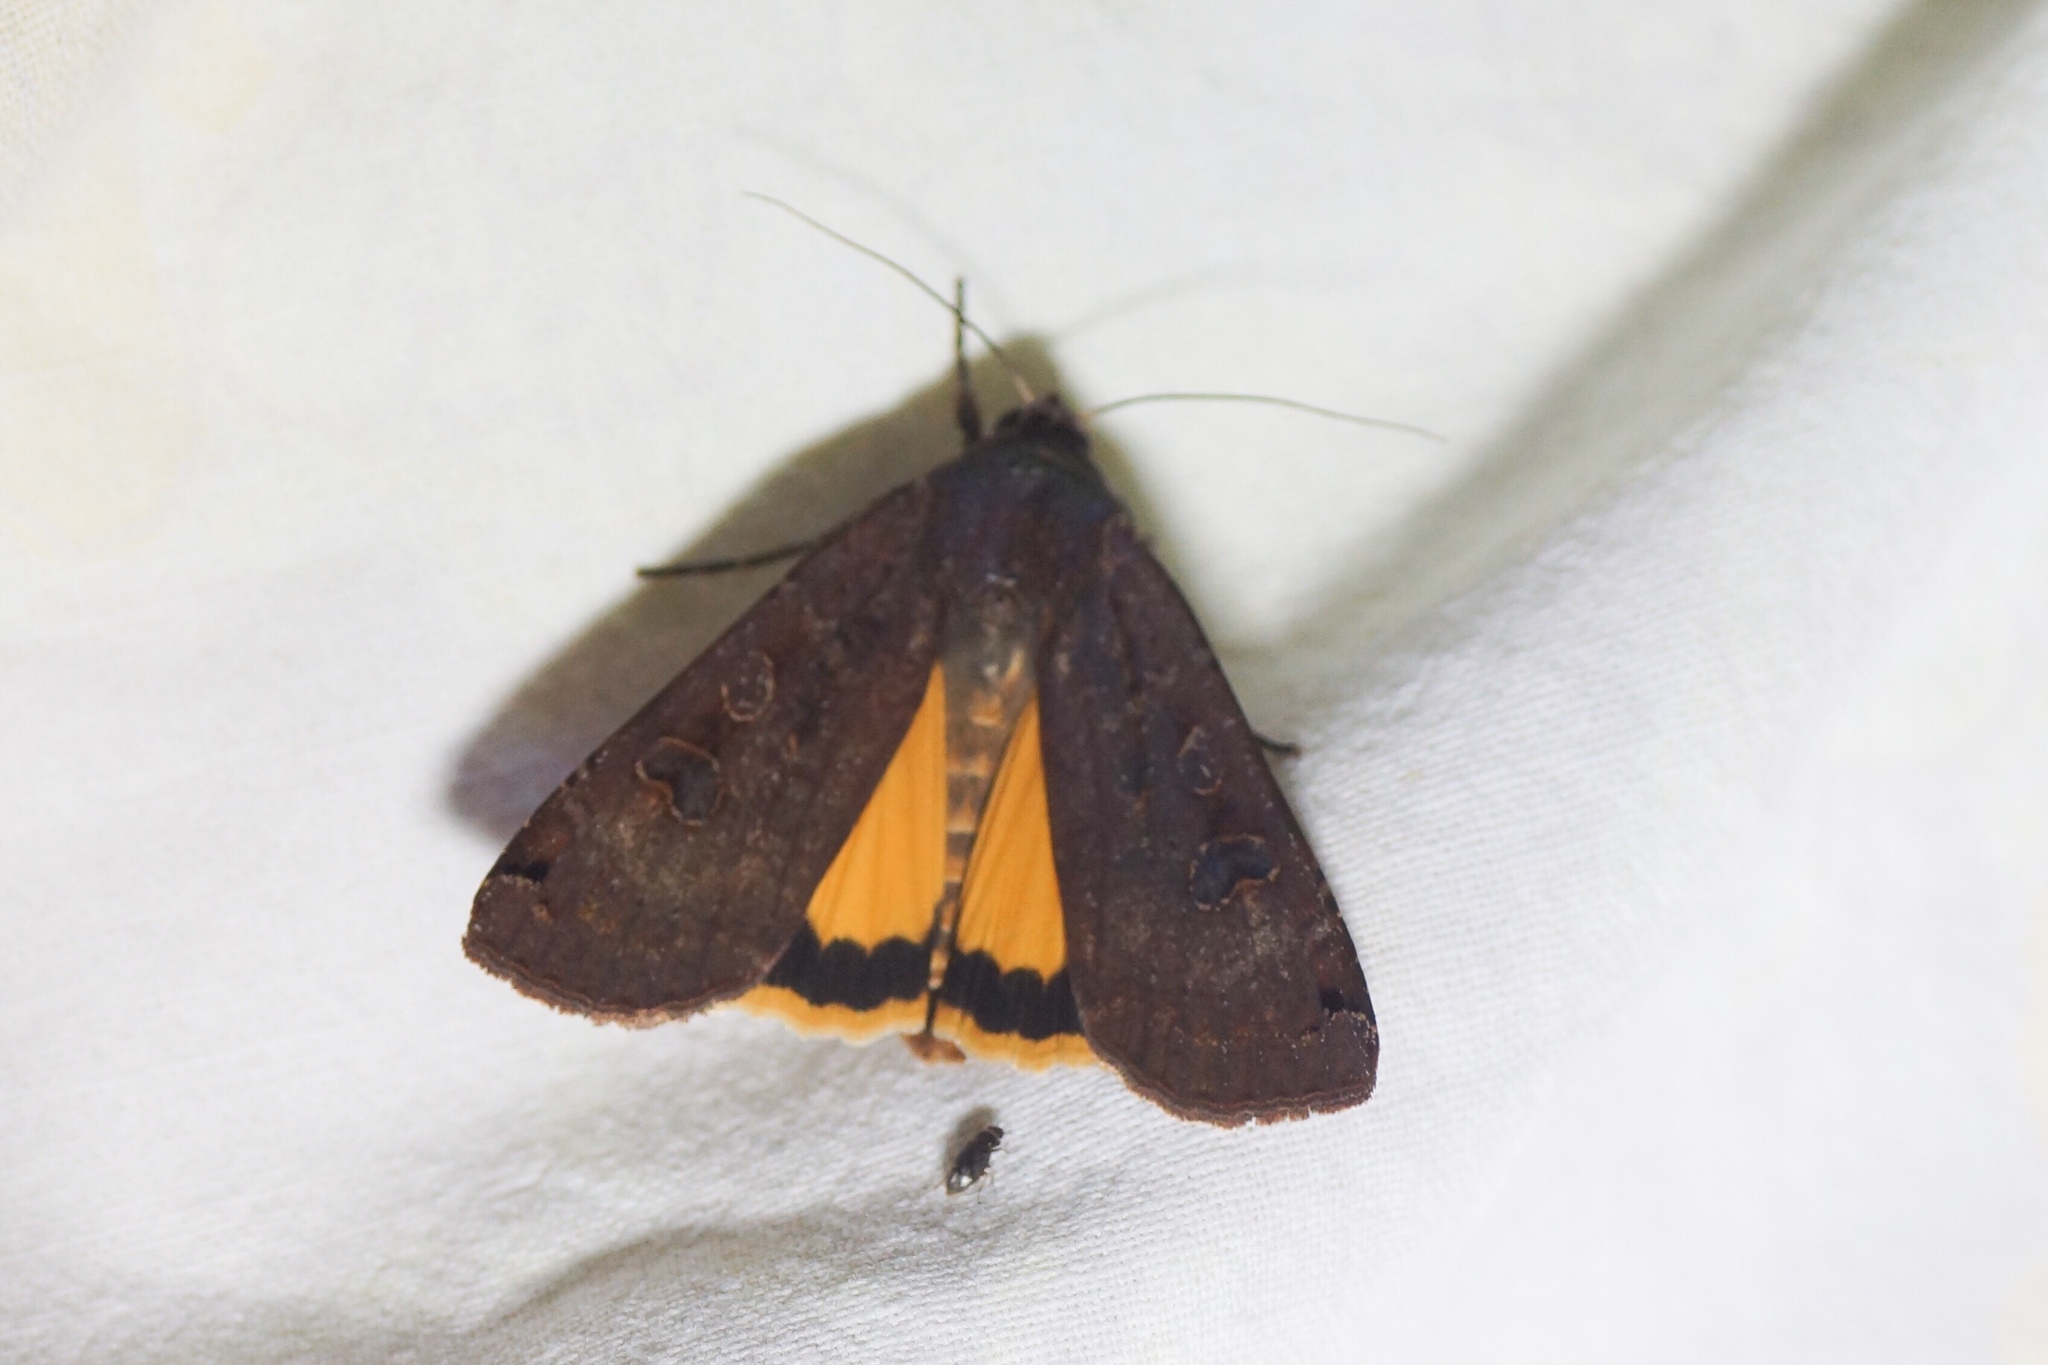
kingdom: Animalia
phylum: Arthropoda
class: Insecta
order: Lepidoptera
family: Noctuidae
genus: Noctua
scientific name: Noctua pronuba
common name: Large yellow underwing
